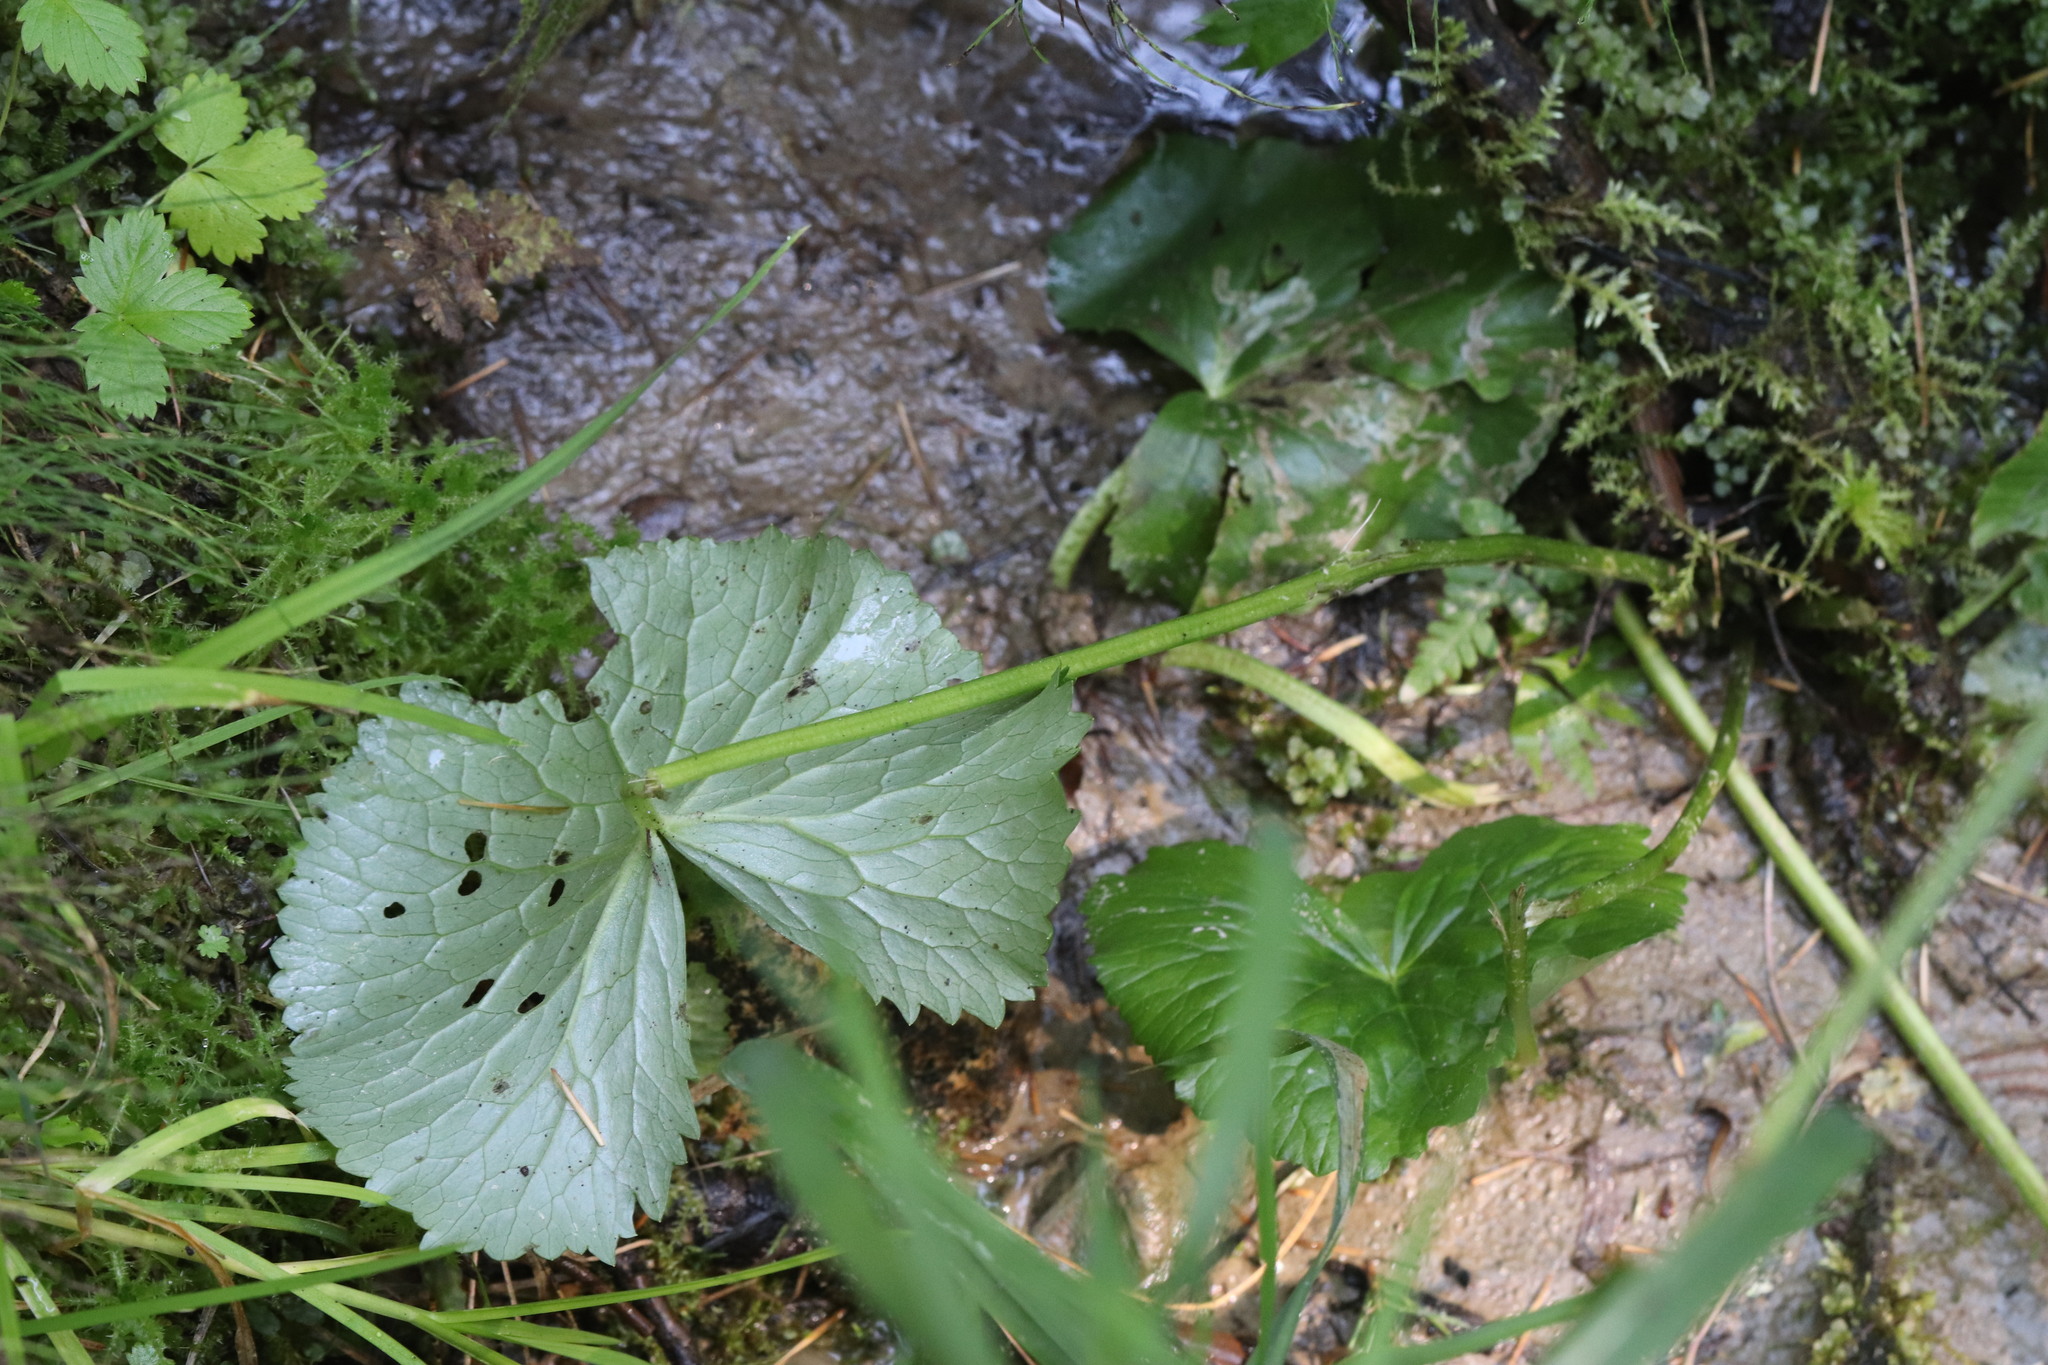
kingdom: Plantae
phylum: Tracheophyta
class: Magnoliopsida
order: Ranunculales
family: Ranunculaceae
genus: Caltha
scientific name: Caltha palustris
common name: Marsh marigold
